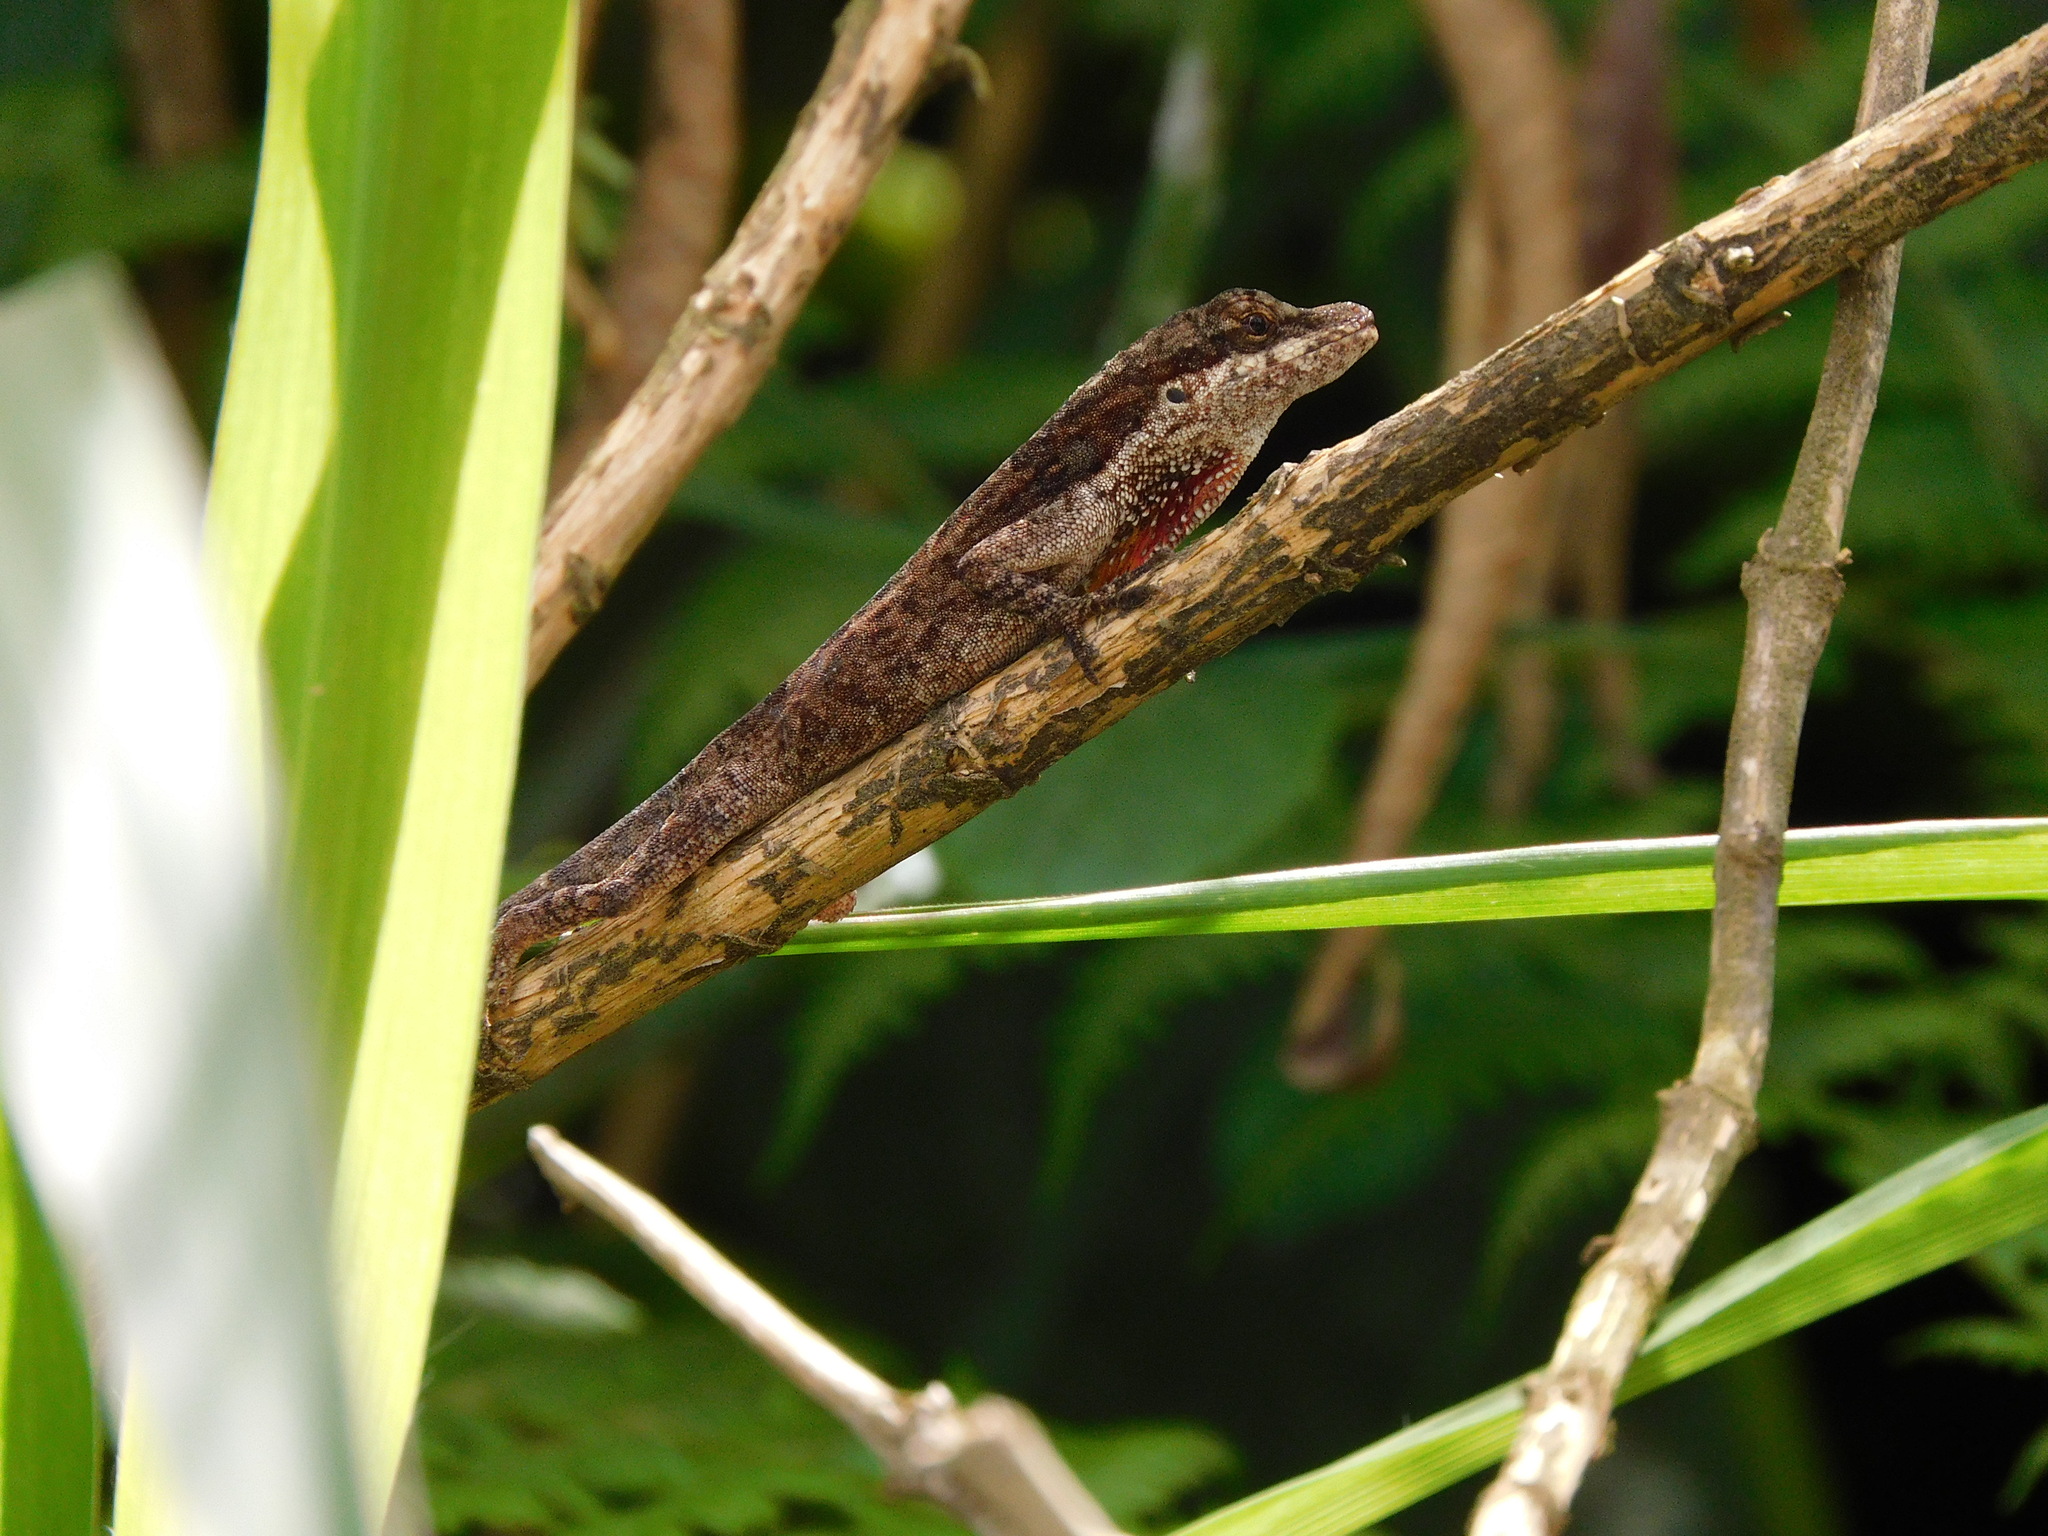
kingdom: Animalia
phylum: Chordata
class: Squamata
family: Dactyloidae
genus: Anolis
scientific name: Anolis mariarum
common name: Blemished anole
